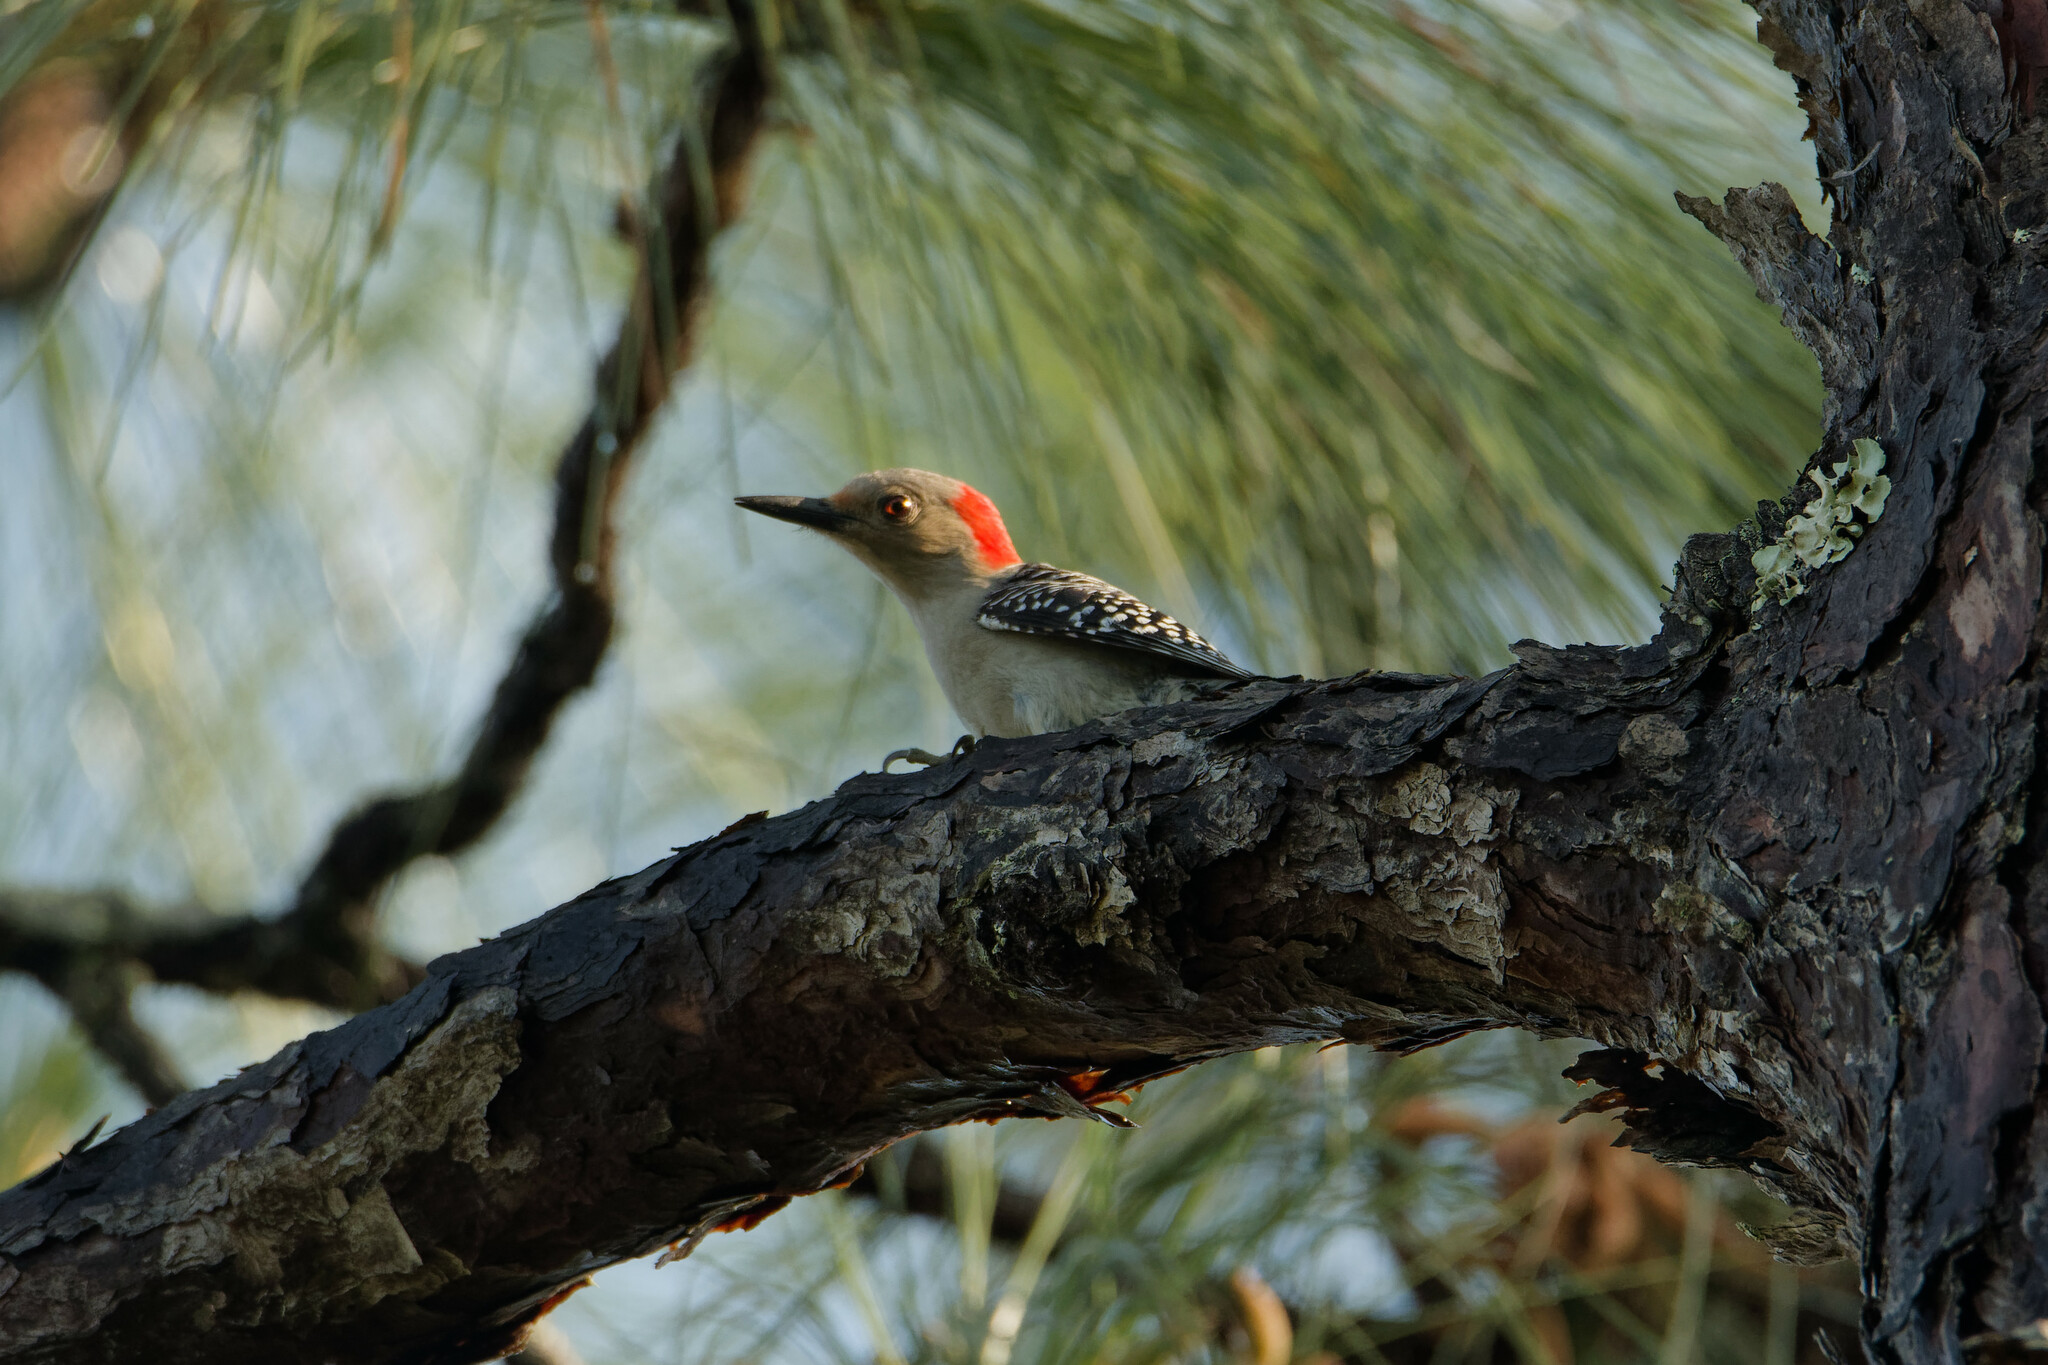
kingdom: Animalia
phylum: Chordata
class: Aves
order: Piciformes
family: Picidae
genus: Melanerpes
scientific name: Melanerpes carolinus
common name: Red-bellied woodpecker
